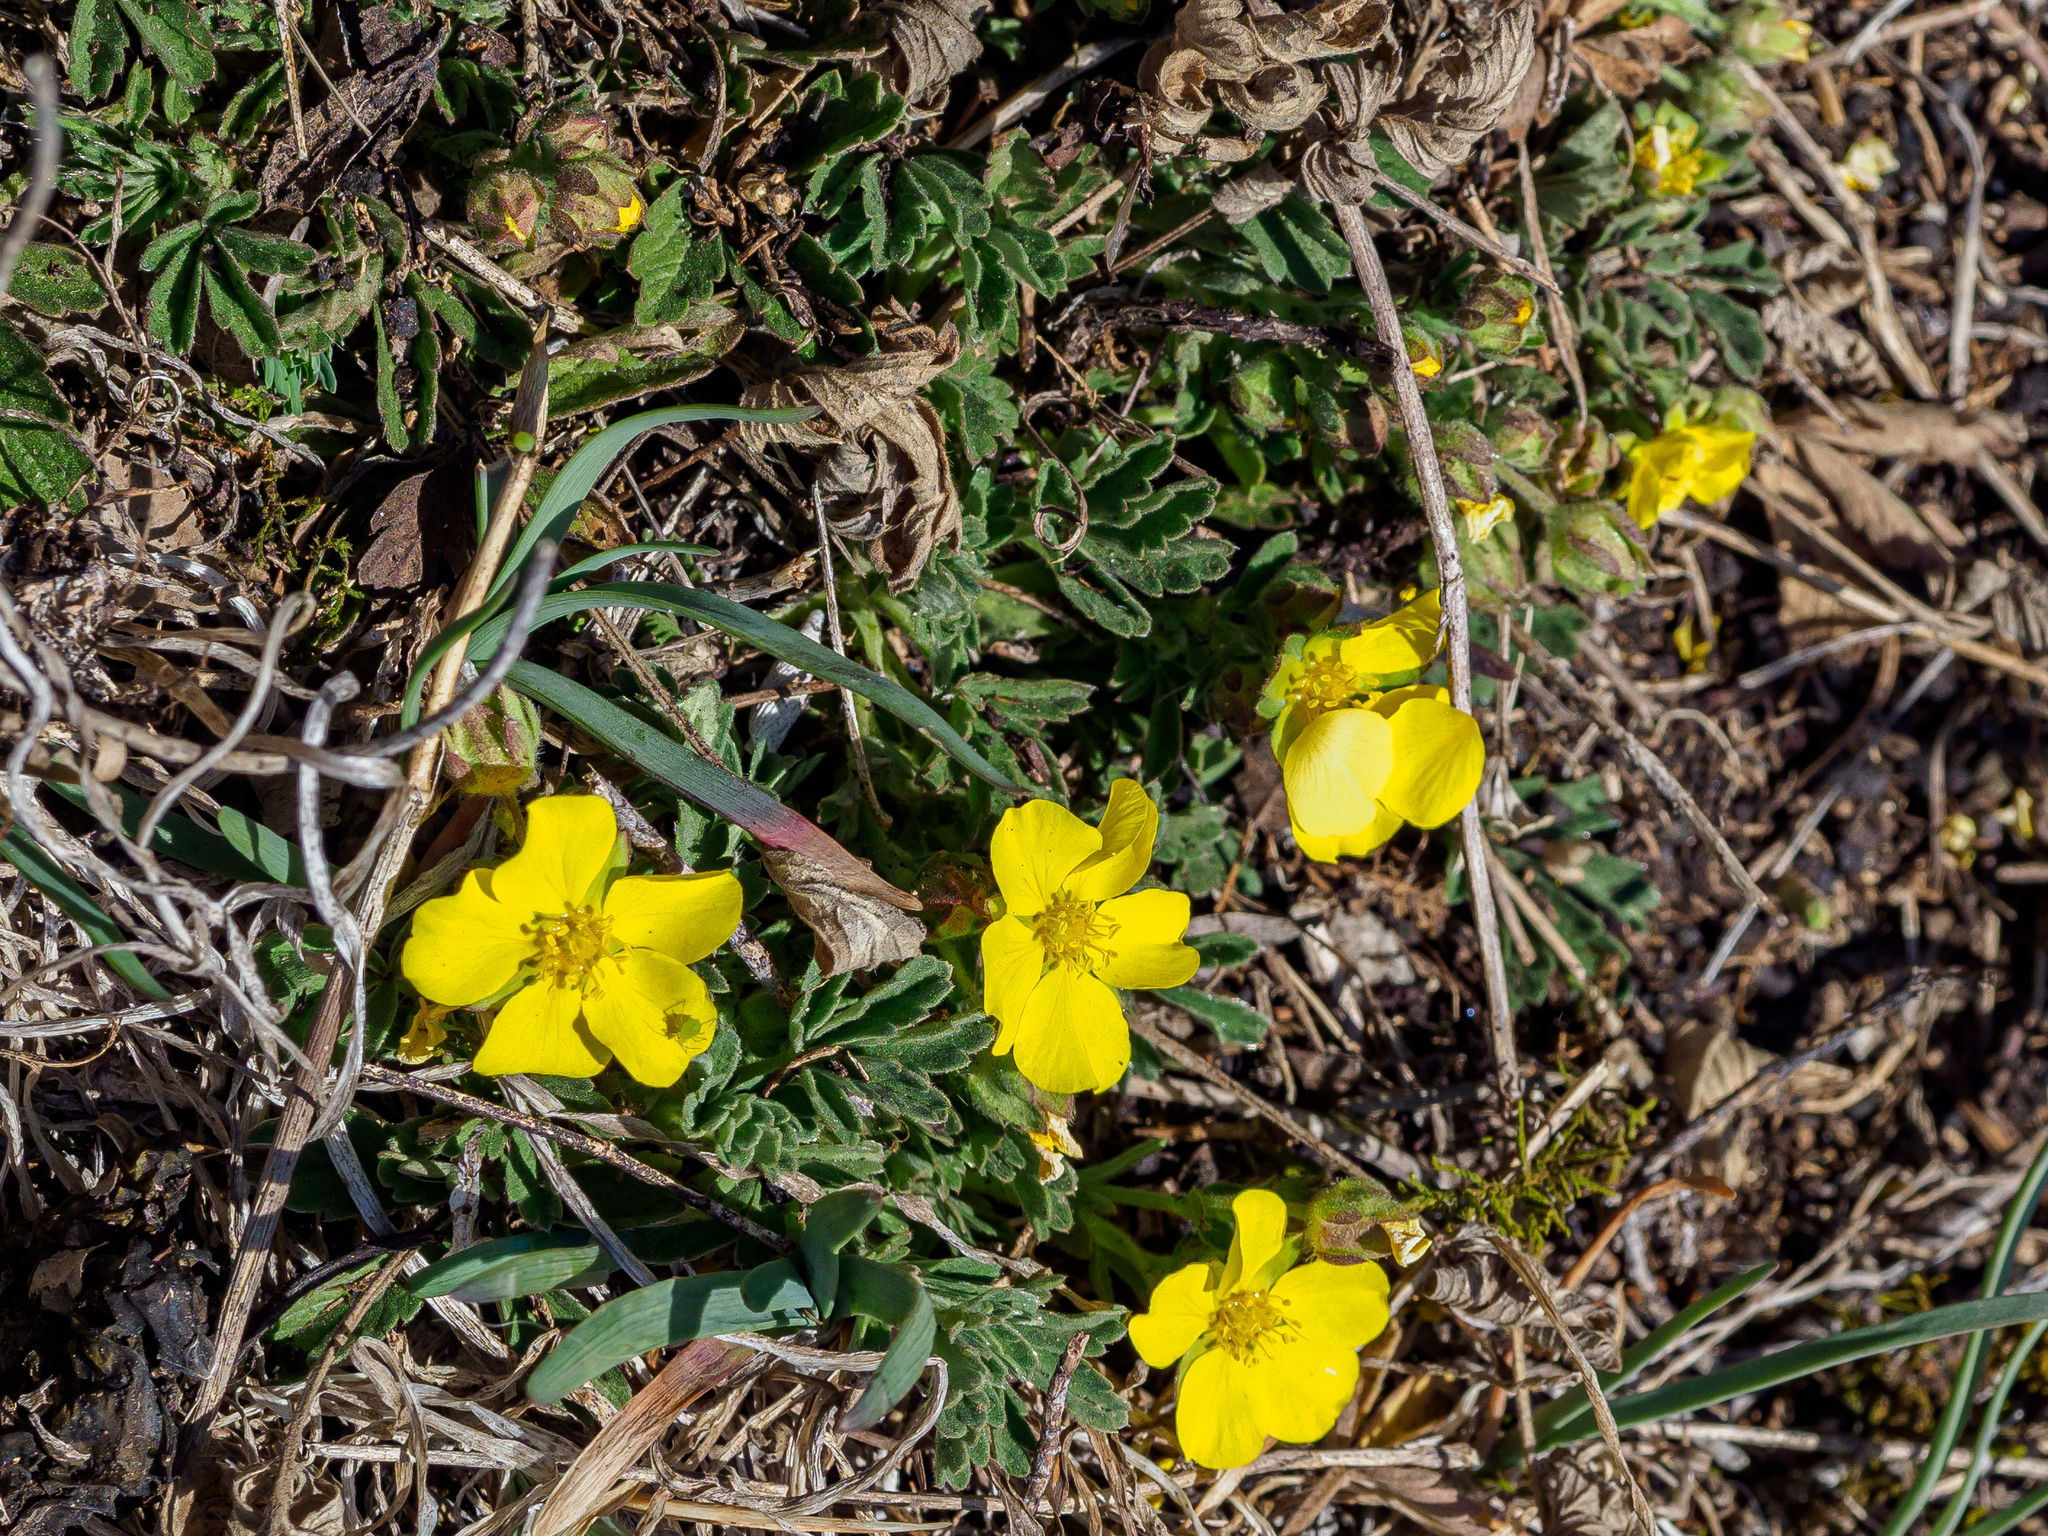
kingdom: Plantae
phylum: Tracheophyta
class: Magnoliopsida
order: Rosales
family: Rosaceae
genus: Potentilla
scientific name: Potentilla incana
